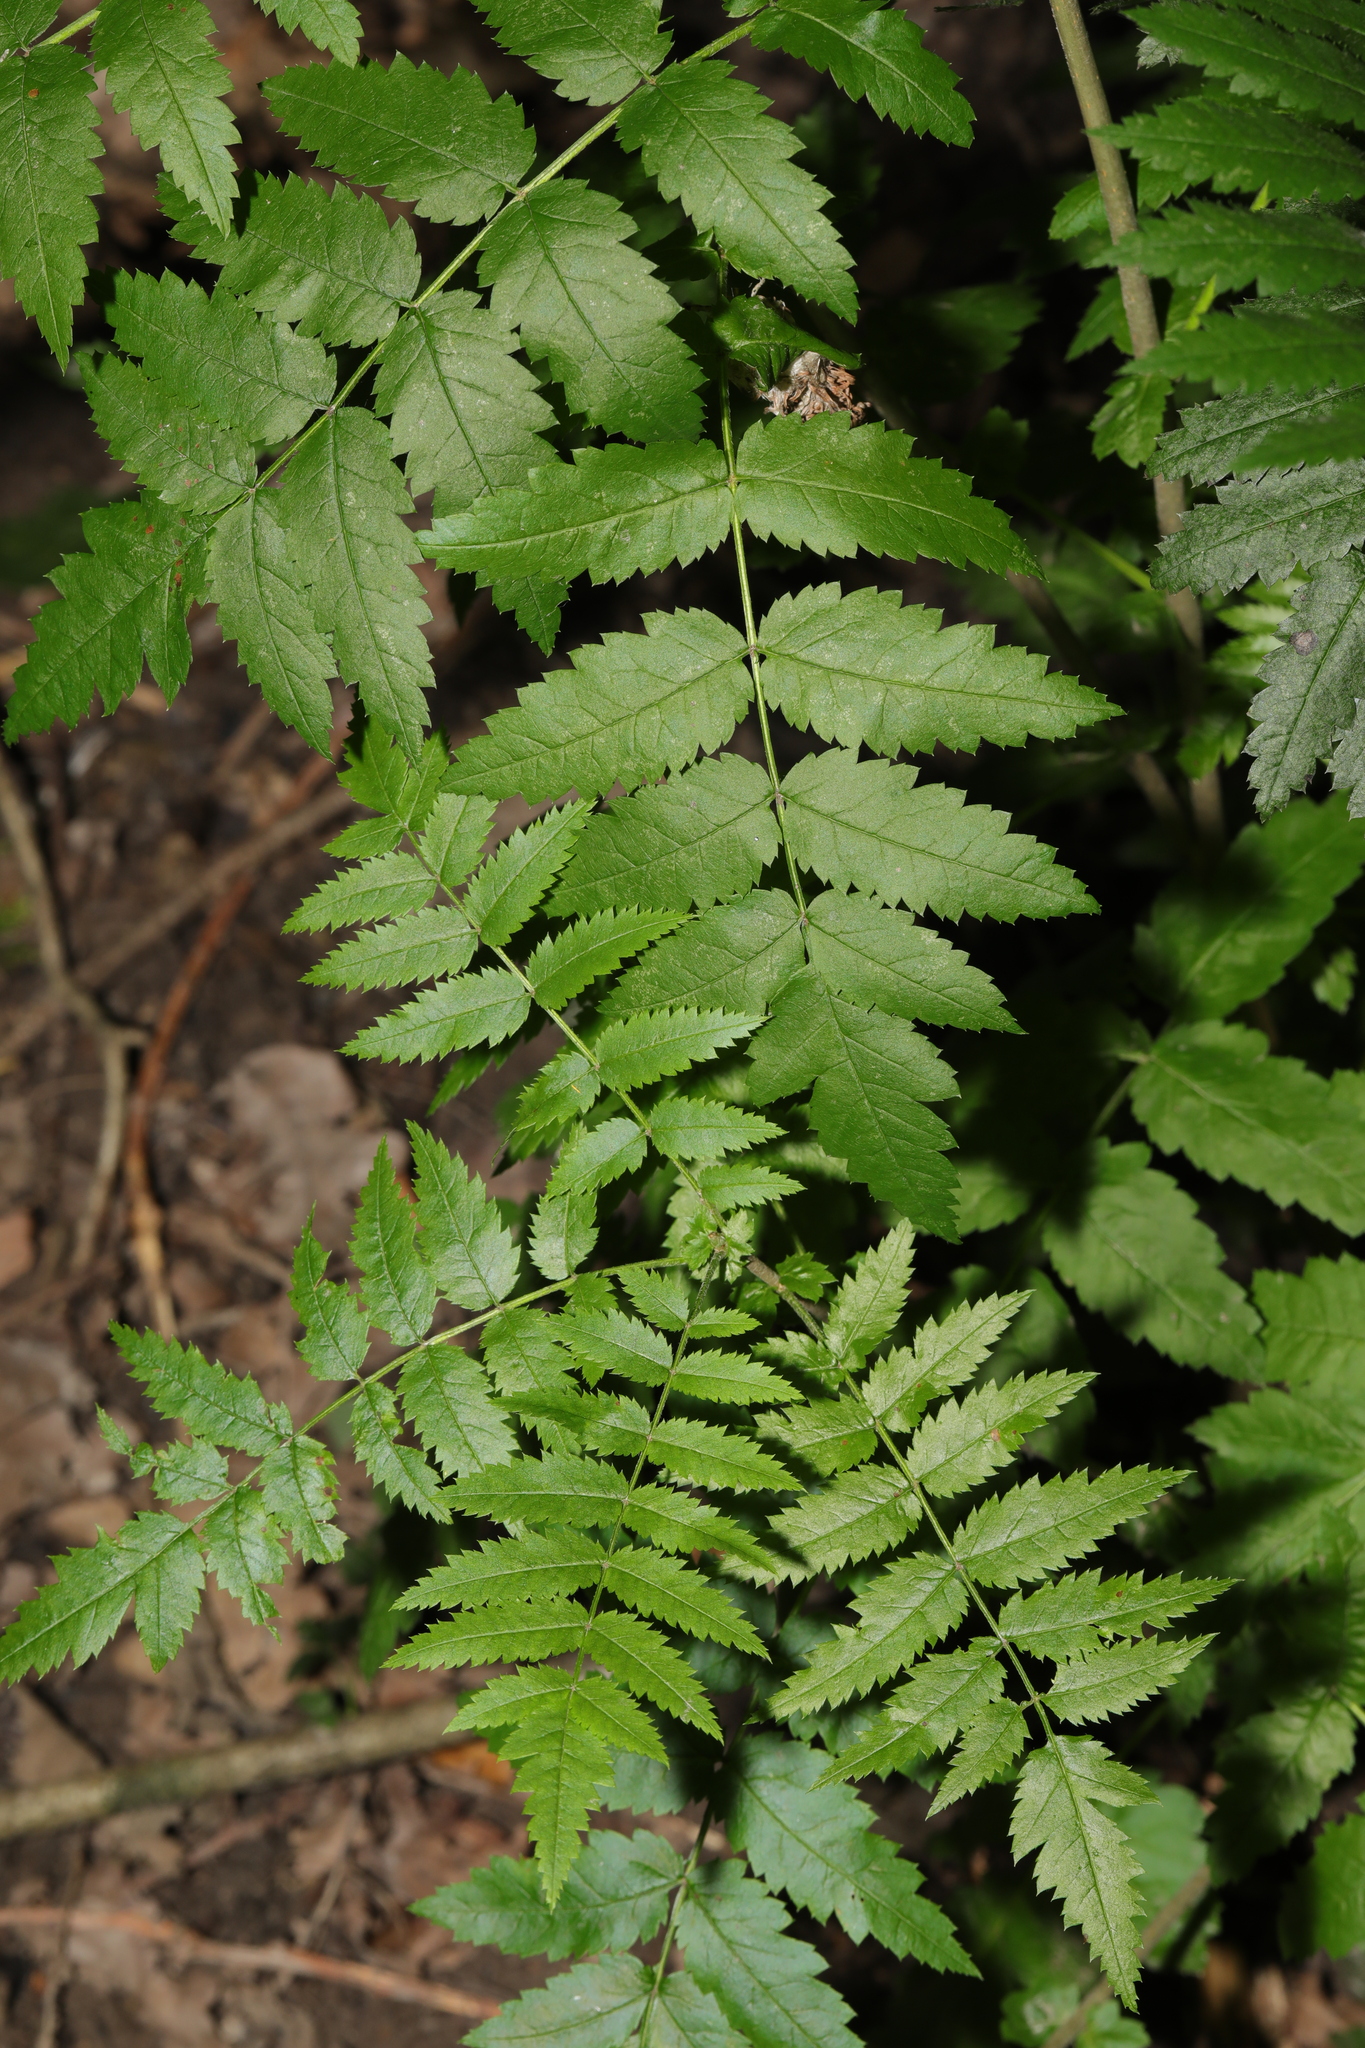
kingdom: Plantae
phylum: Tracheophyta
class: Magnoliopsida
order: Rosales
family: Rosaceae
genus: Sorbus
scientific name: Sorbus aucuparia
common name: Rowan
